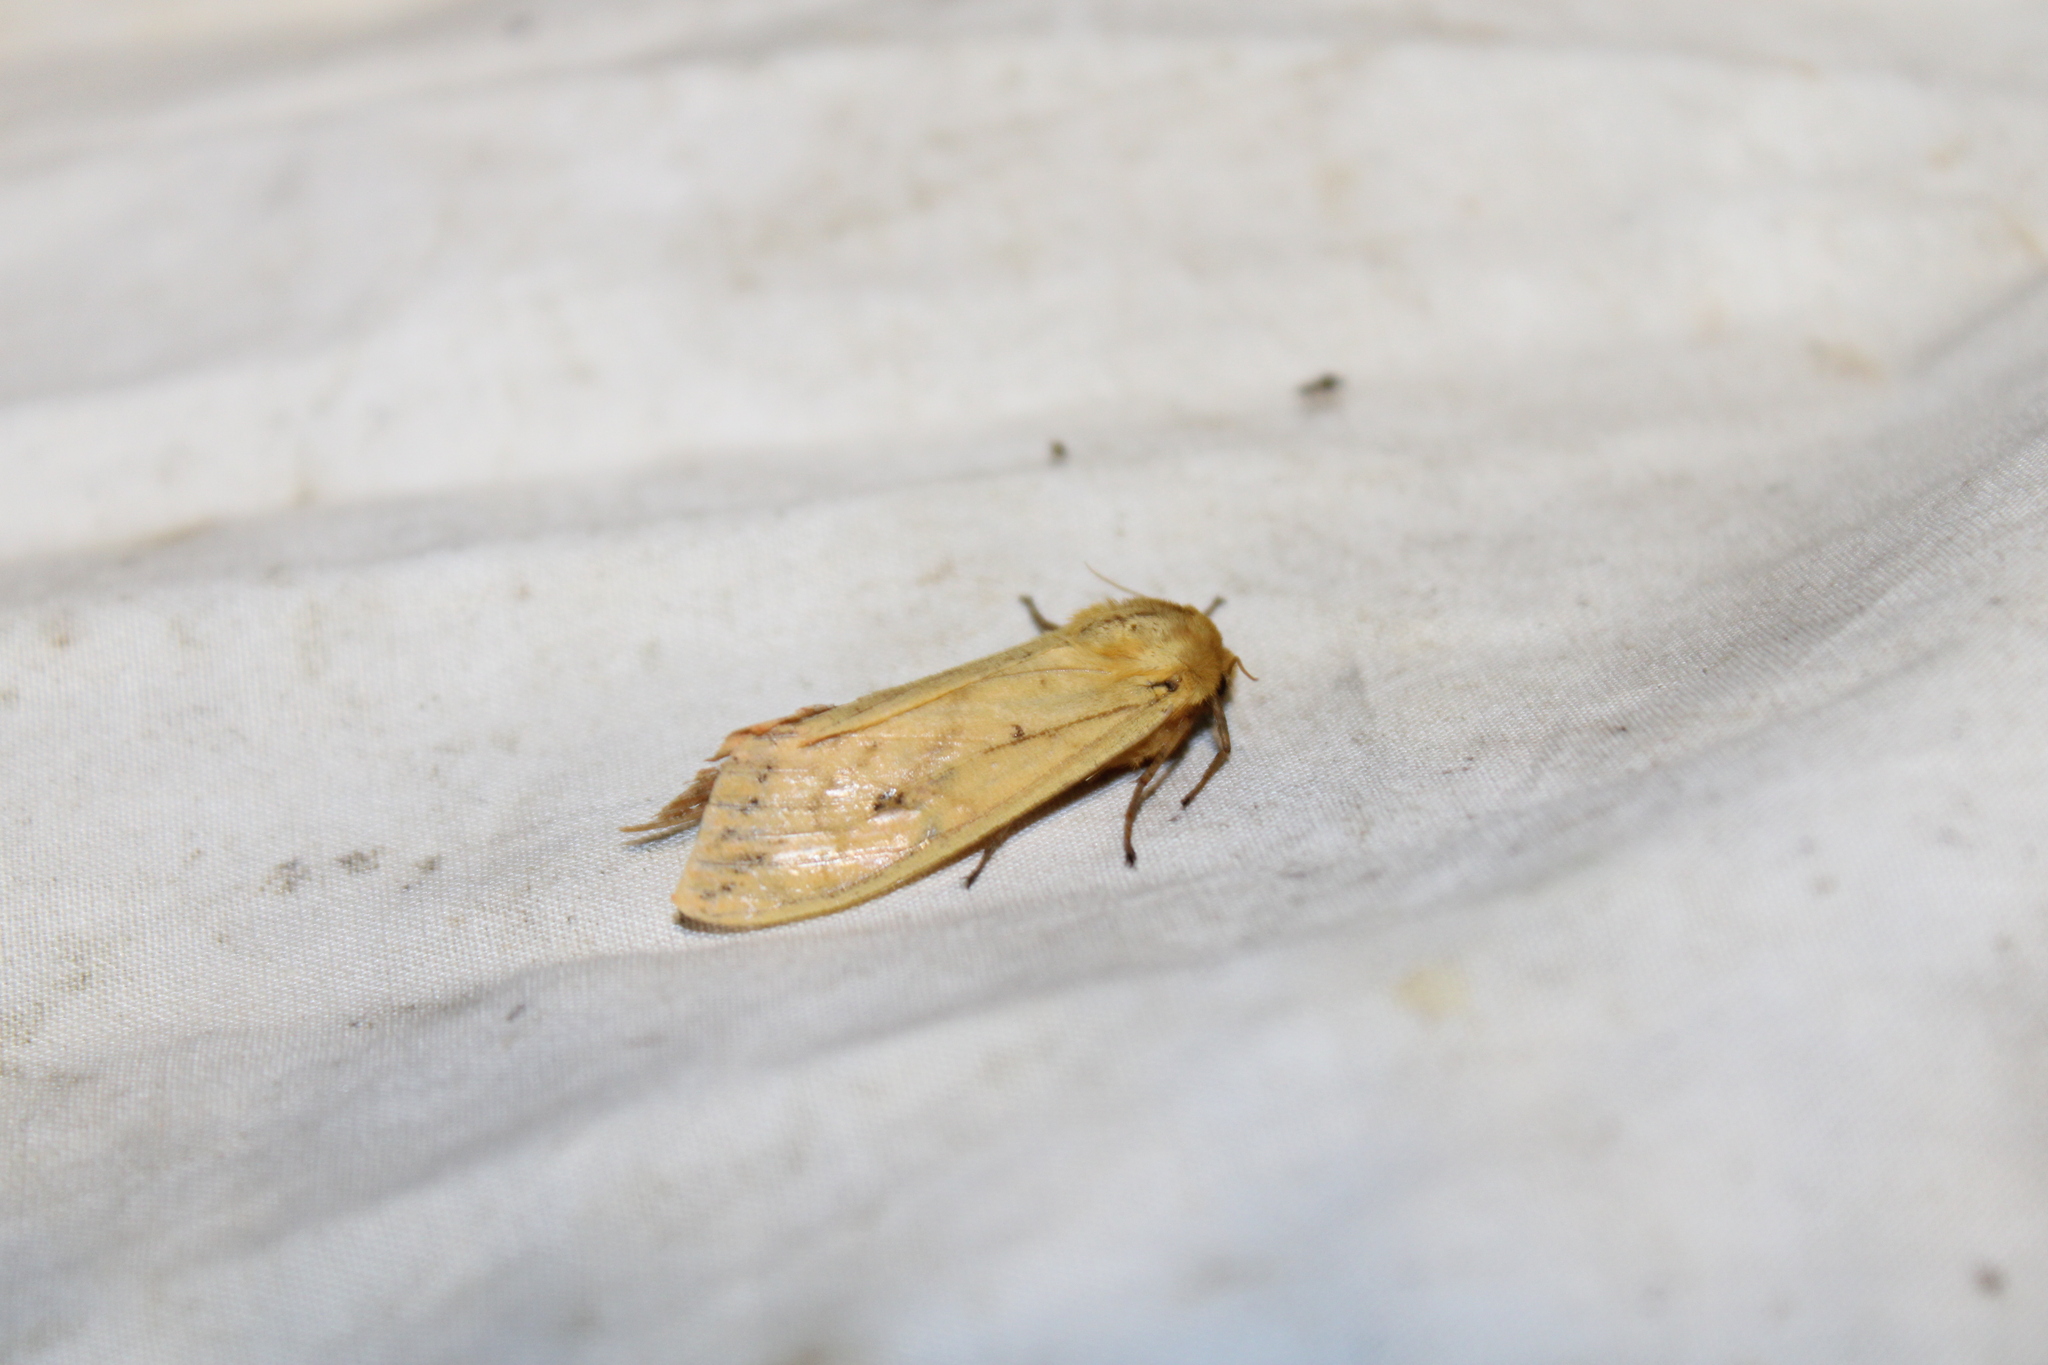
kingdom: Animalia
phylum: Arthropoda
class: Insecta
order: Lepidoptera
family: Erebidae
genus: Pyrrharctia
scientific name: Pyrrharctia isabella
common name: Isabella tiger moth
